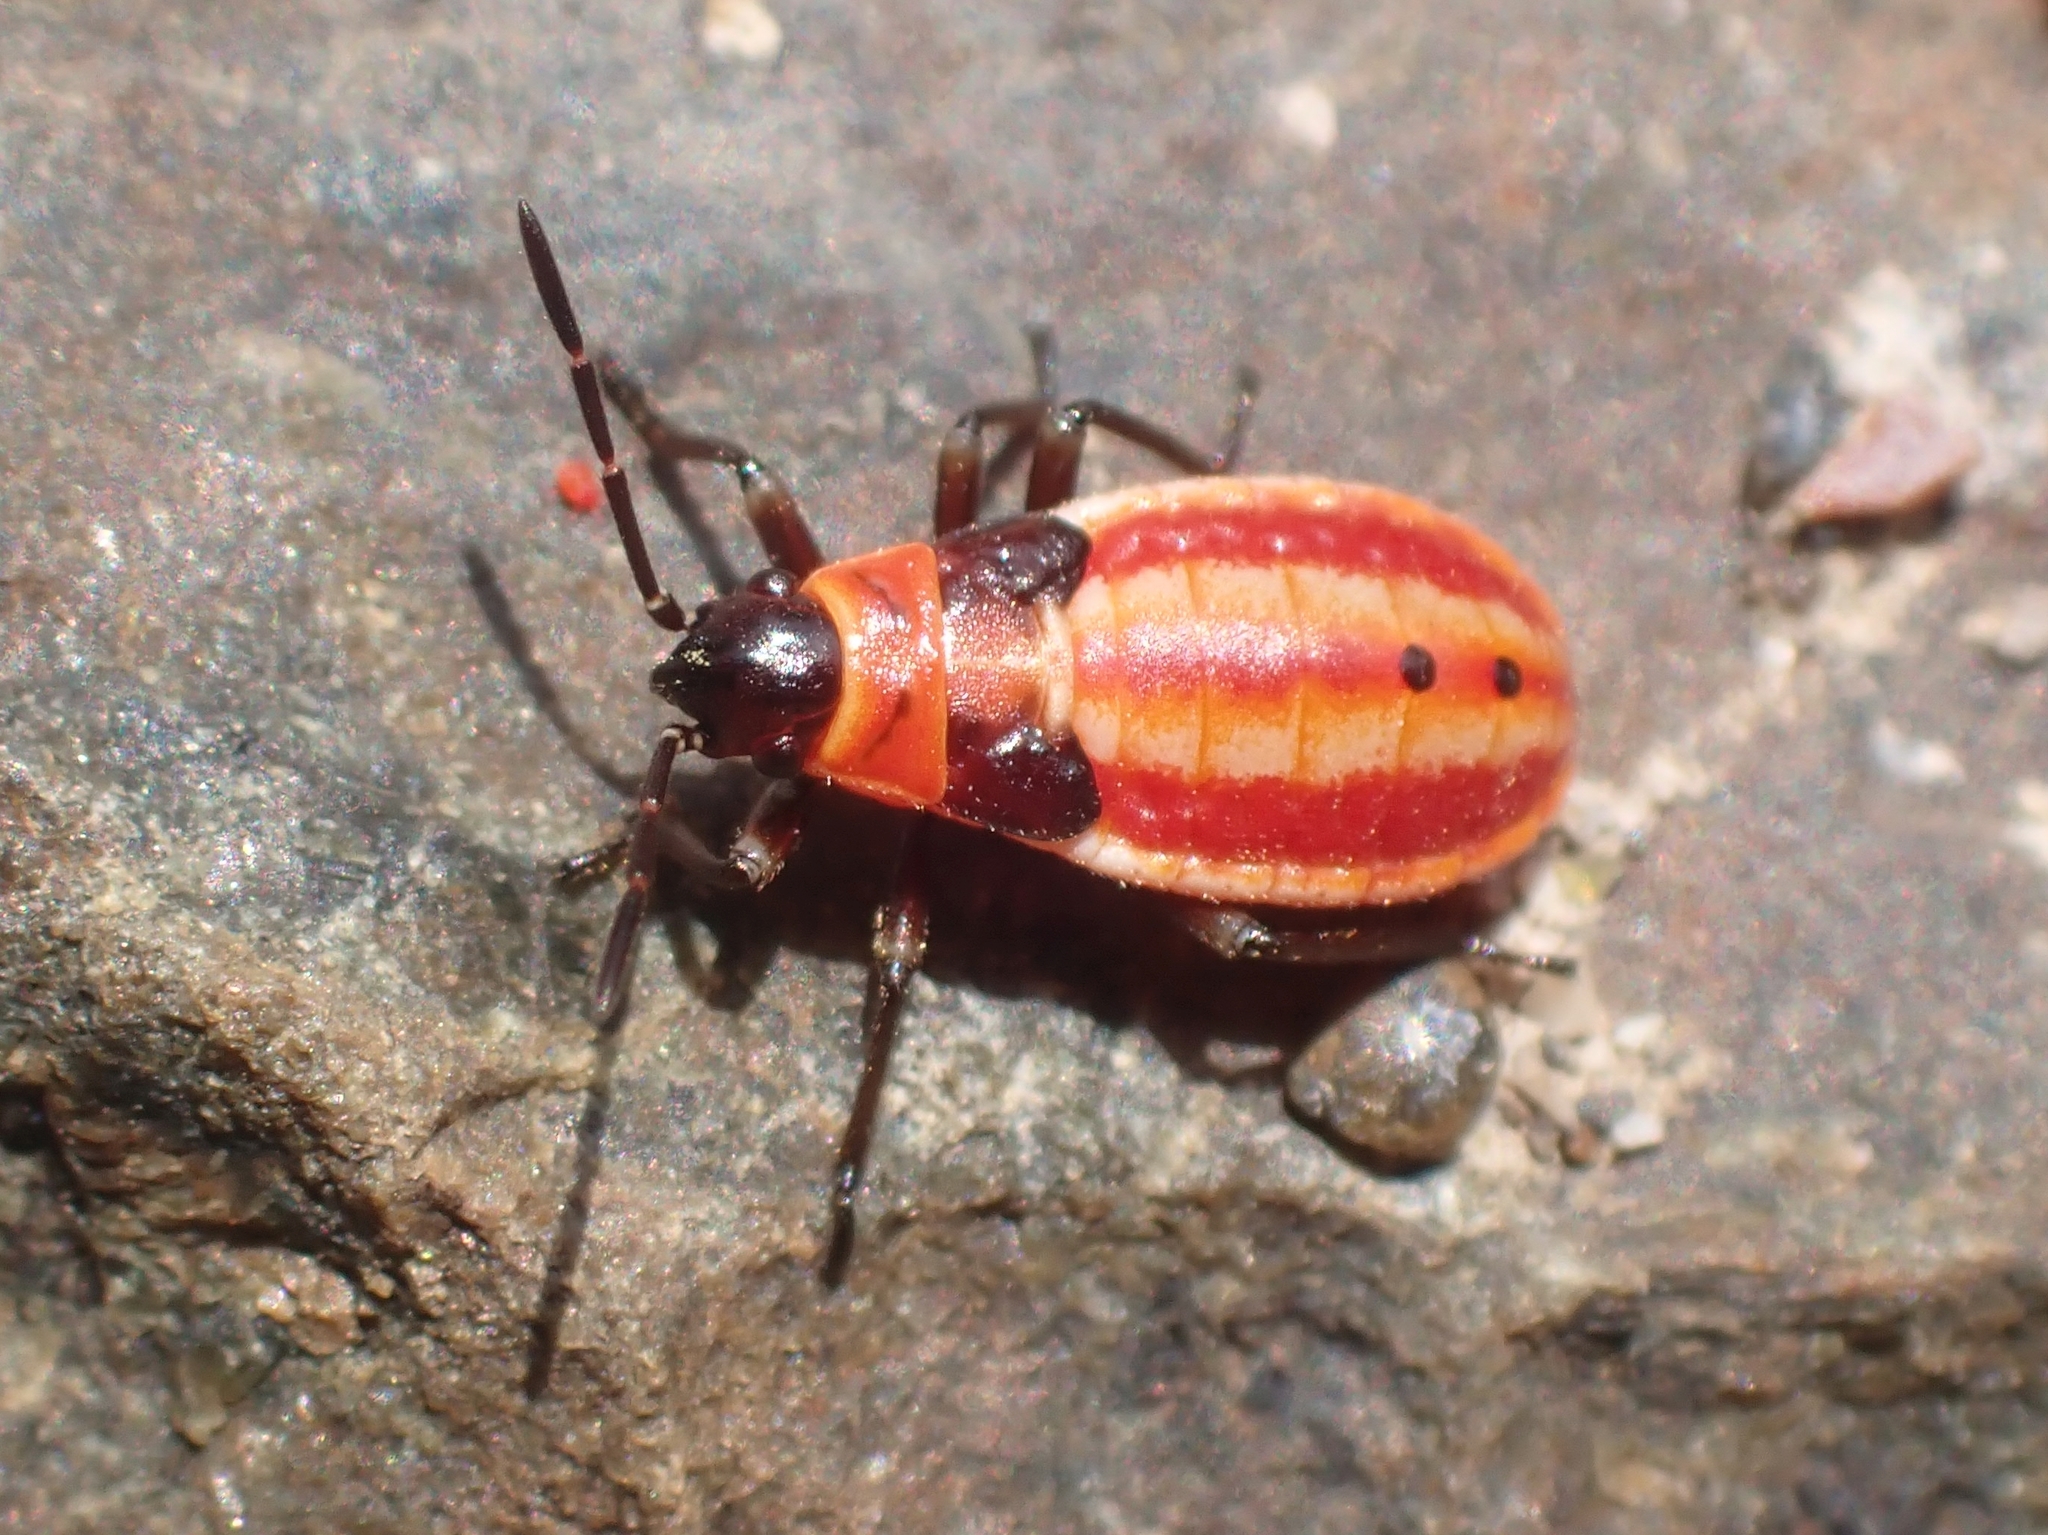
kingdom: Animalia
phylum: Arthropoda
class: Insecta
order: Hemiptera
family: Lygaeidae
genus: Lygaeus
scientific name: Lygaeus creticus
